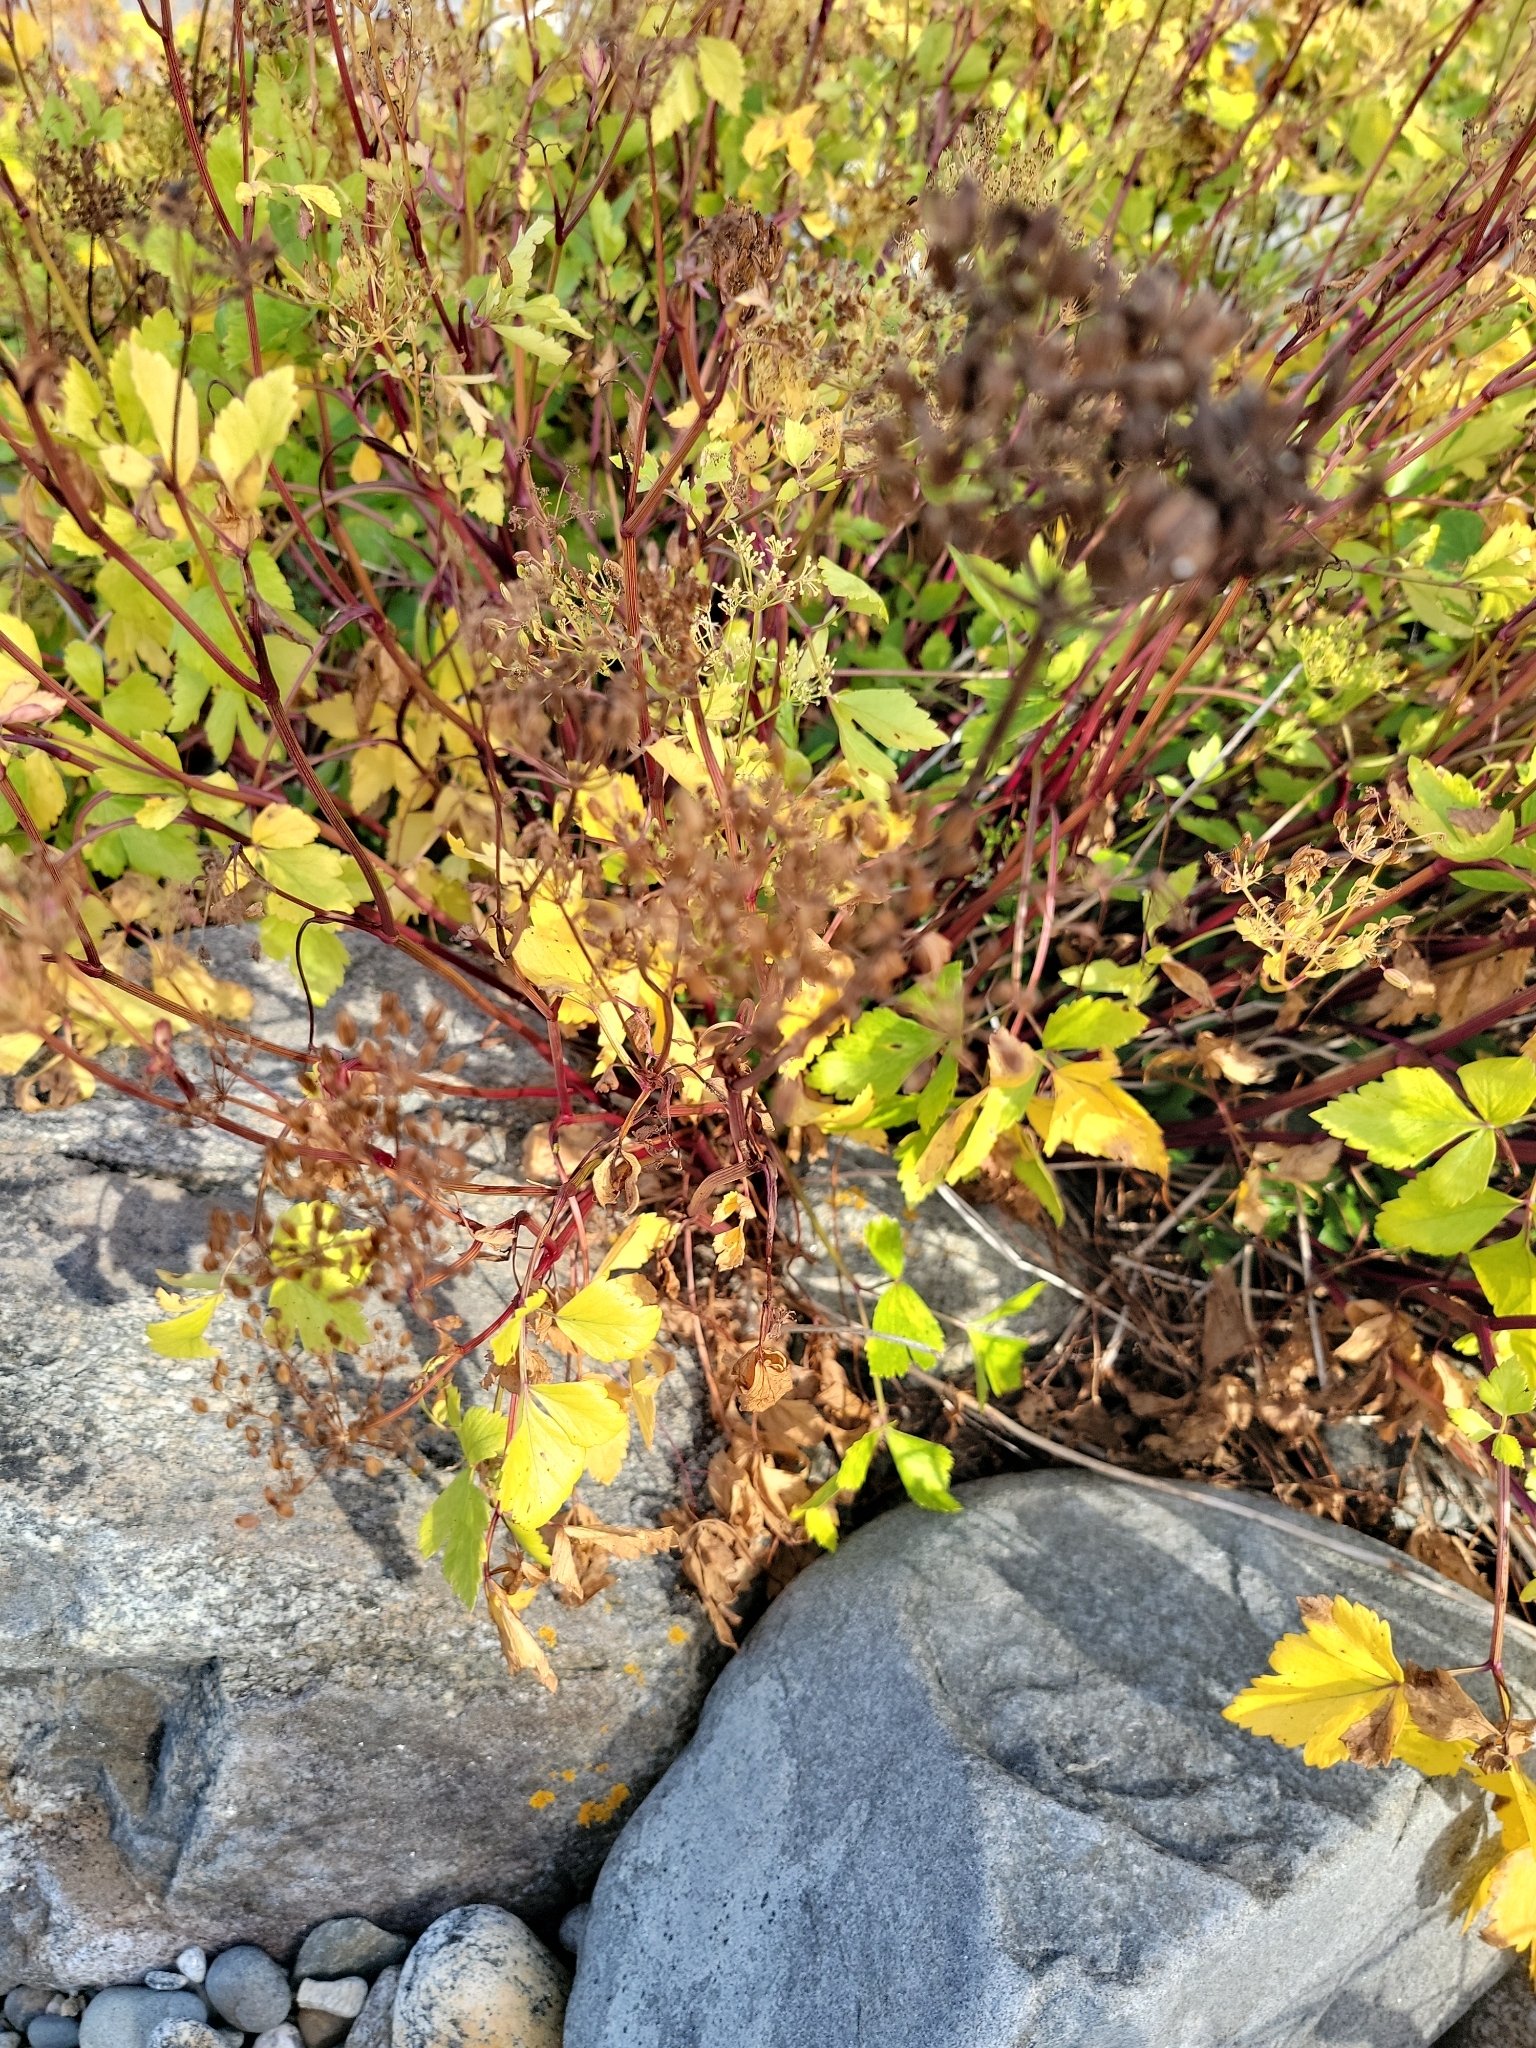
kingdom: Plantae
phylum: Tracheophyta
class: Magnoliopsida
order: Apiales
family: Apiaceae
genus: Ligusticum
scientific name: Ligusticum scothicum
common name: Beach lovage
